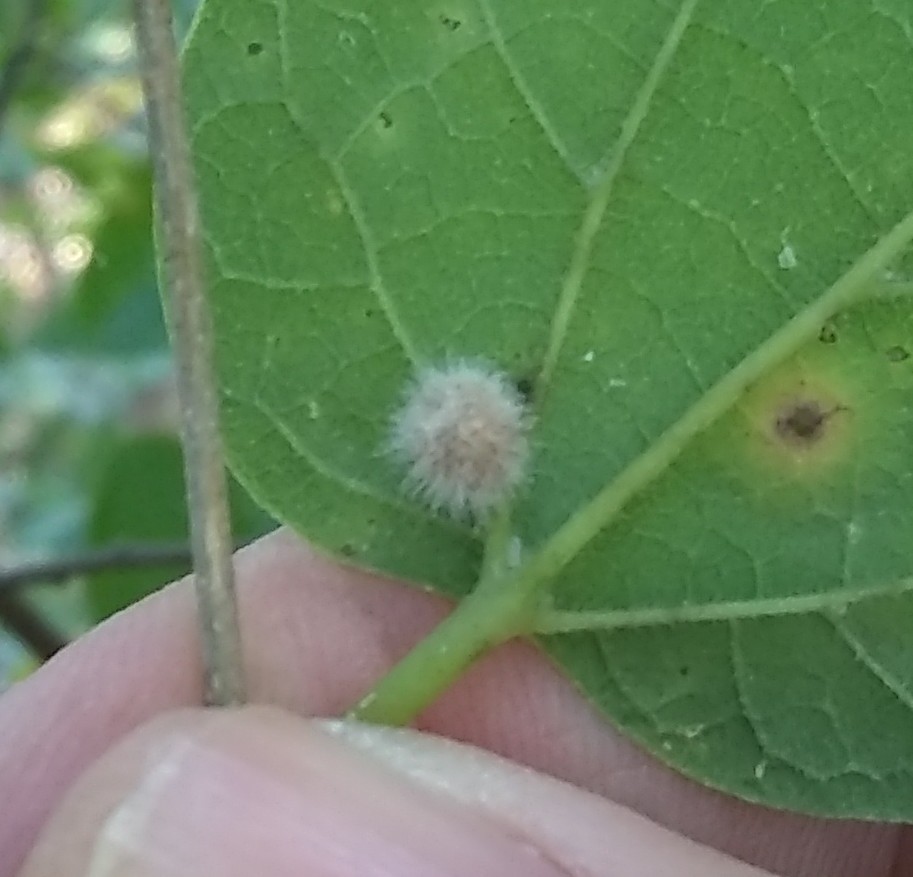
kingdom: Animalia
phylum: Arthropoda
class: Insecta
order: Diptera
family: Cecidomyiidae
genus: Celticecis
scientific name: Celticecis pubescens
